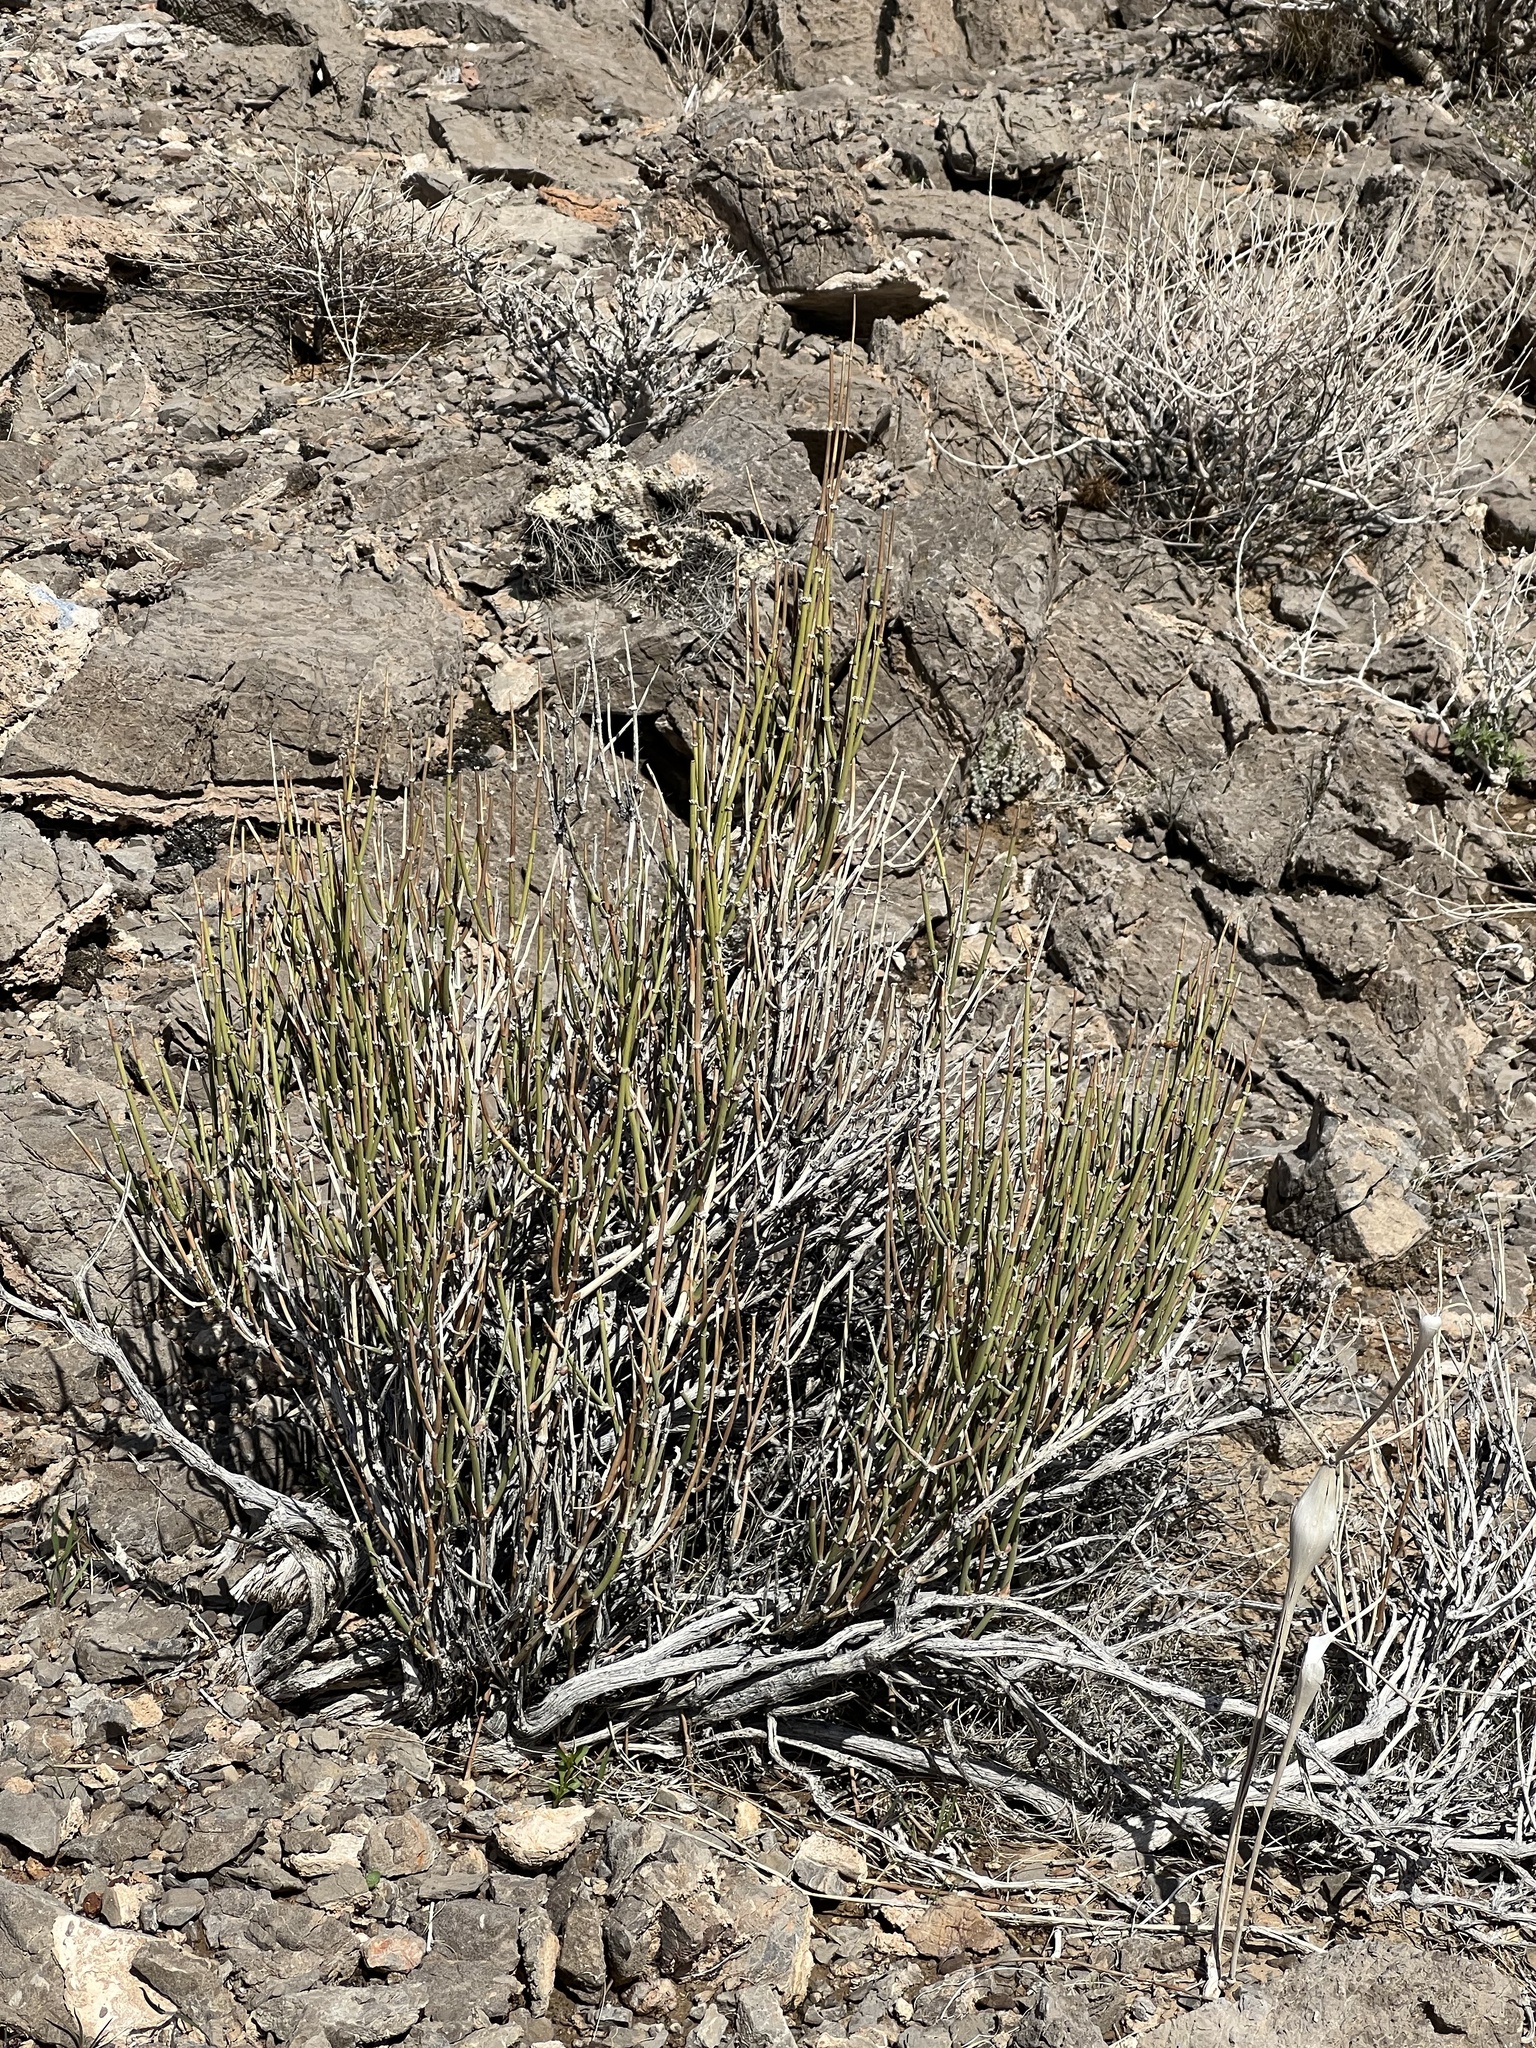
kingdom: Plantae
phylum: Tracheophyta
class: Gnetopsida
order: Ephedrales
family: Ephedraceae
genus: Ephedra
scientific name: Ephedra viridis
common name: Green ephedra
